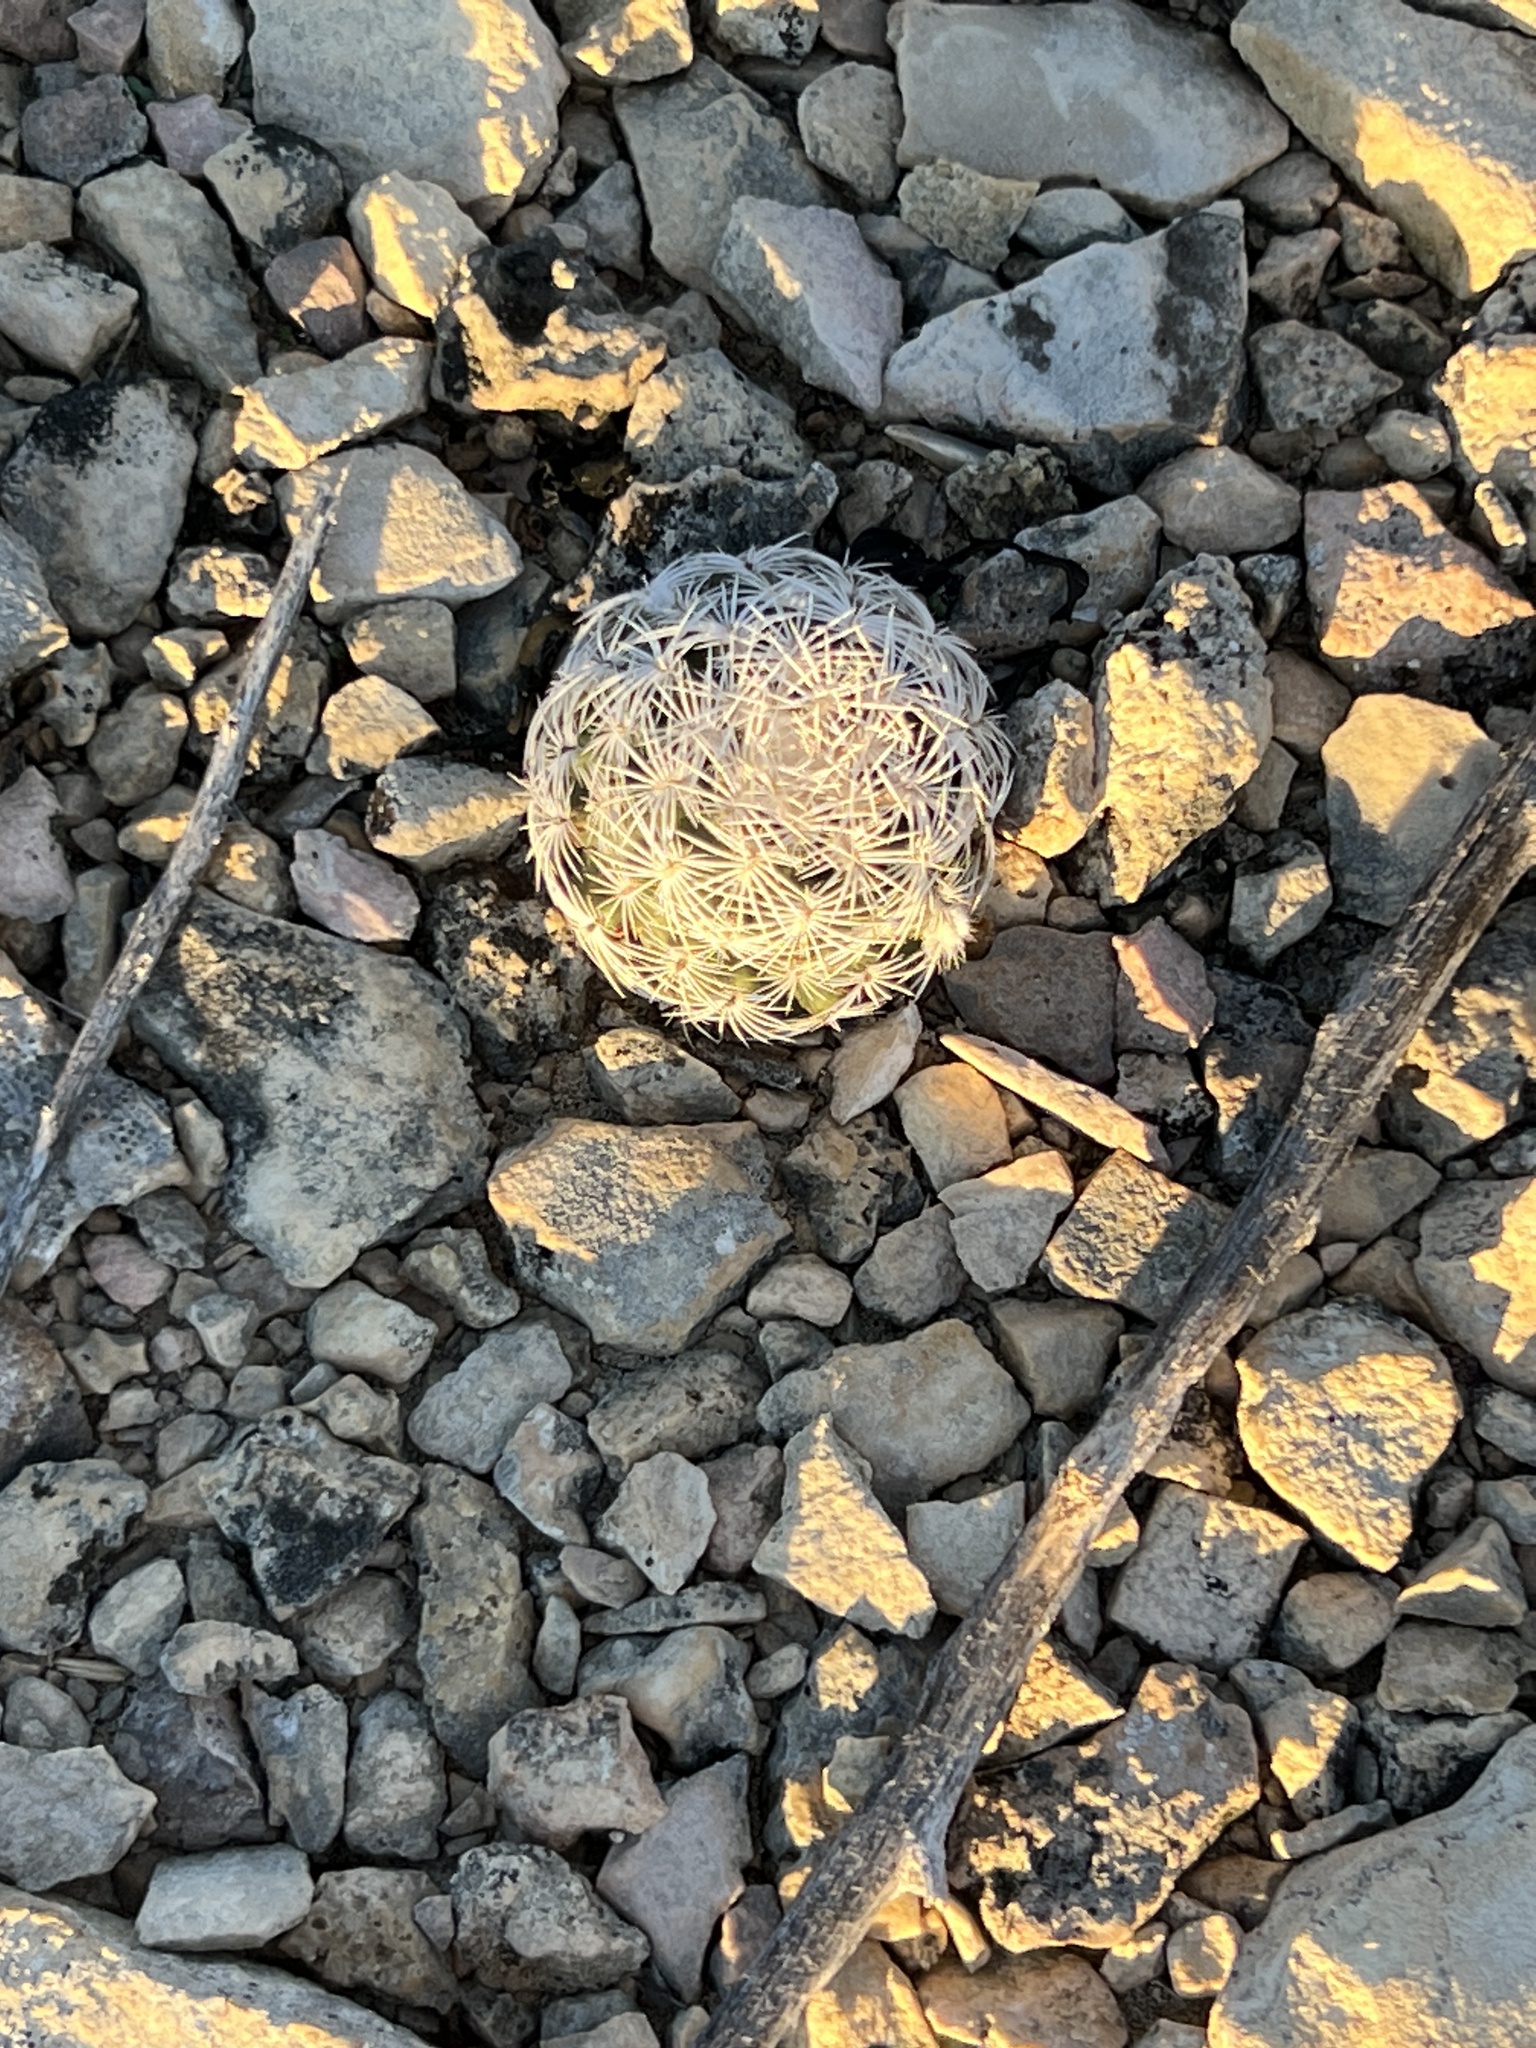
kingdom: Plantae
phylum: Tracheophyta
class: Magnoliopsida
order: Caryophyllales
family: Cactaceae
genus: Echinocereus
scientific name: Echinocereus reichenbachii
